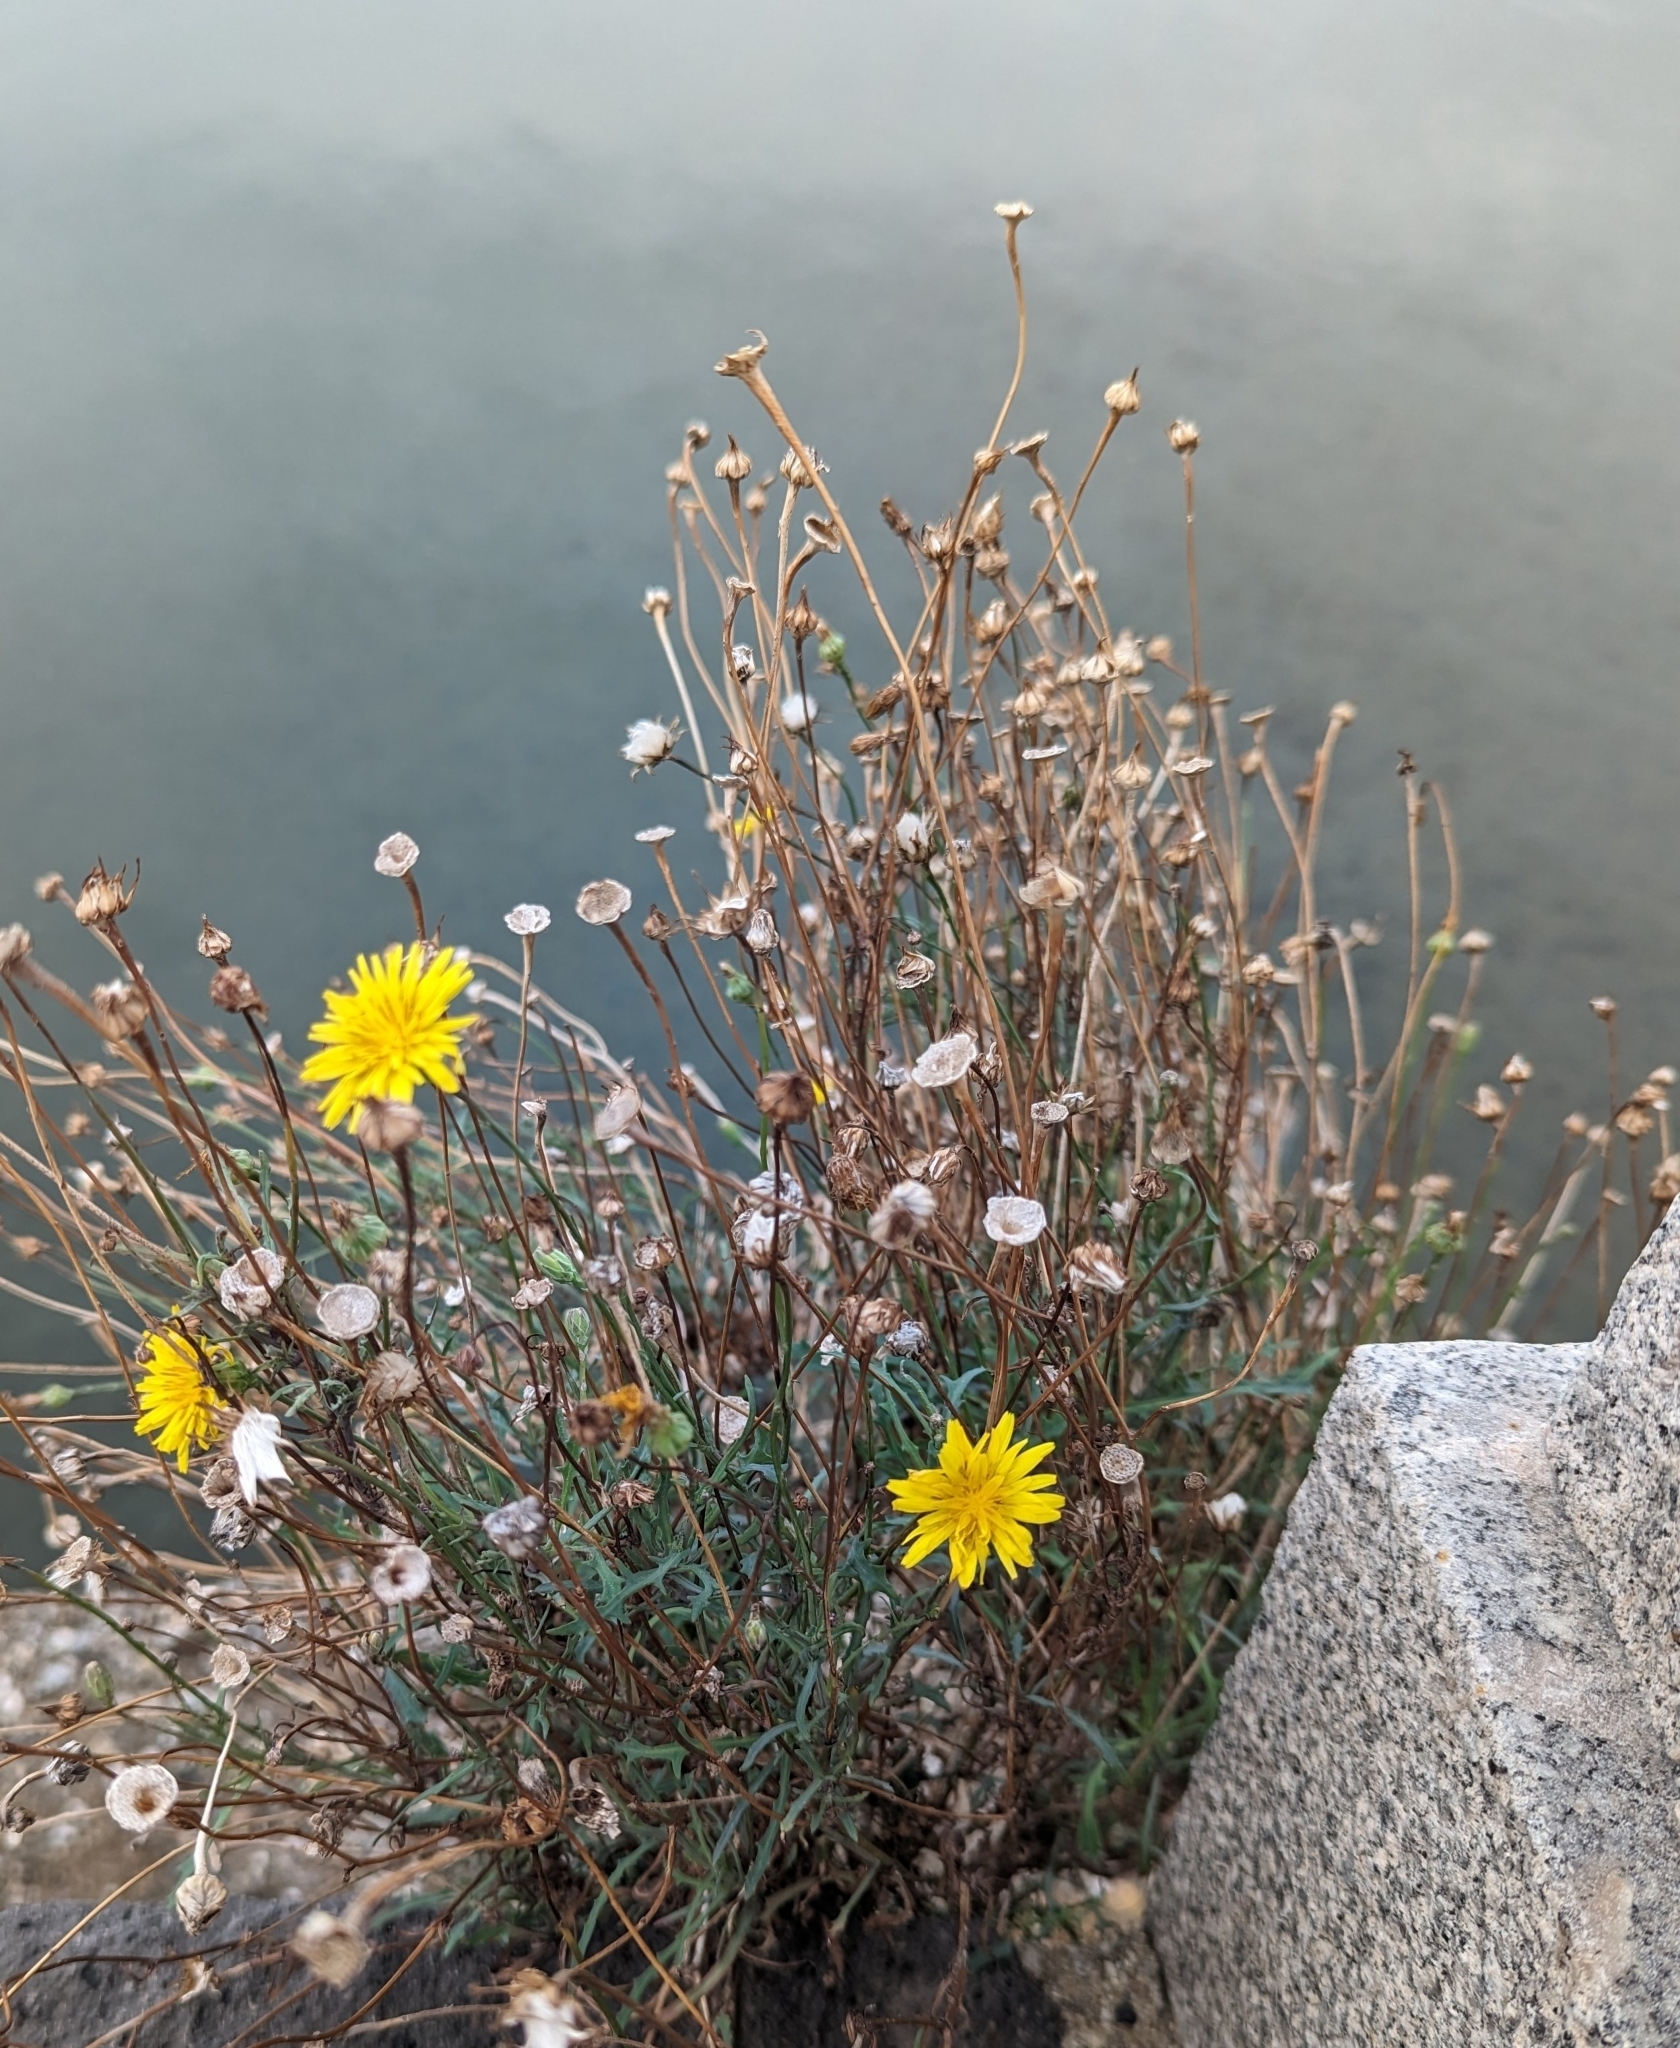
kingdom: Plantae
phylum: Tracheophyta
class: Magnoliopsida
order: Asterales
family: Asteraceae
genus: Reichardia
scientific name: Reichardia picroides
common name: Common brighteyes
